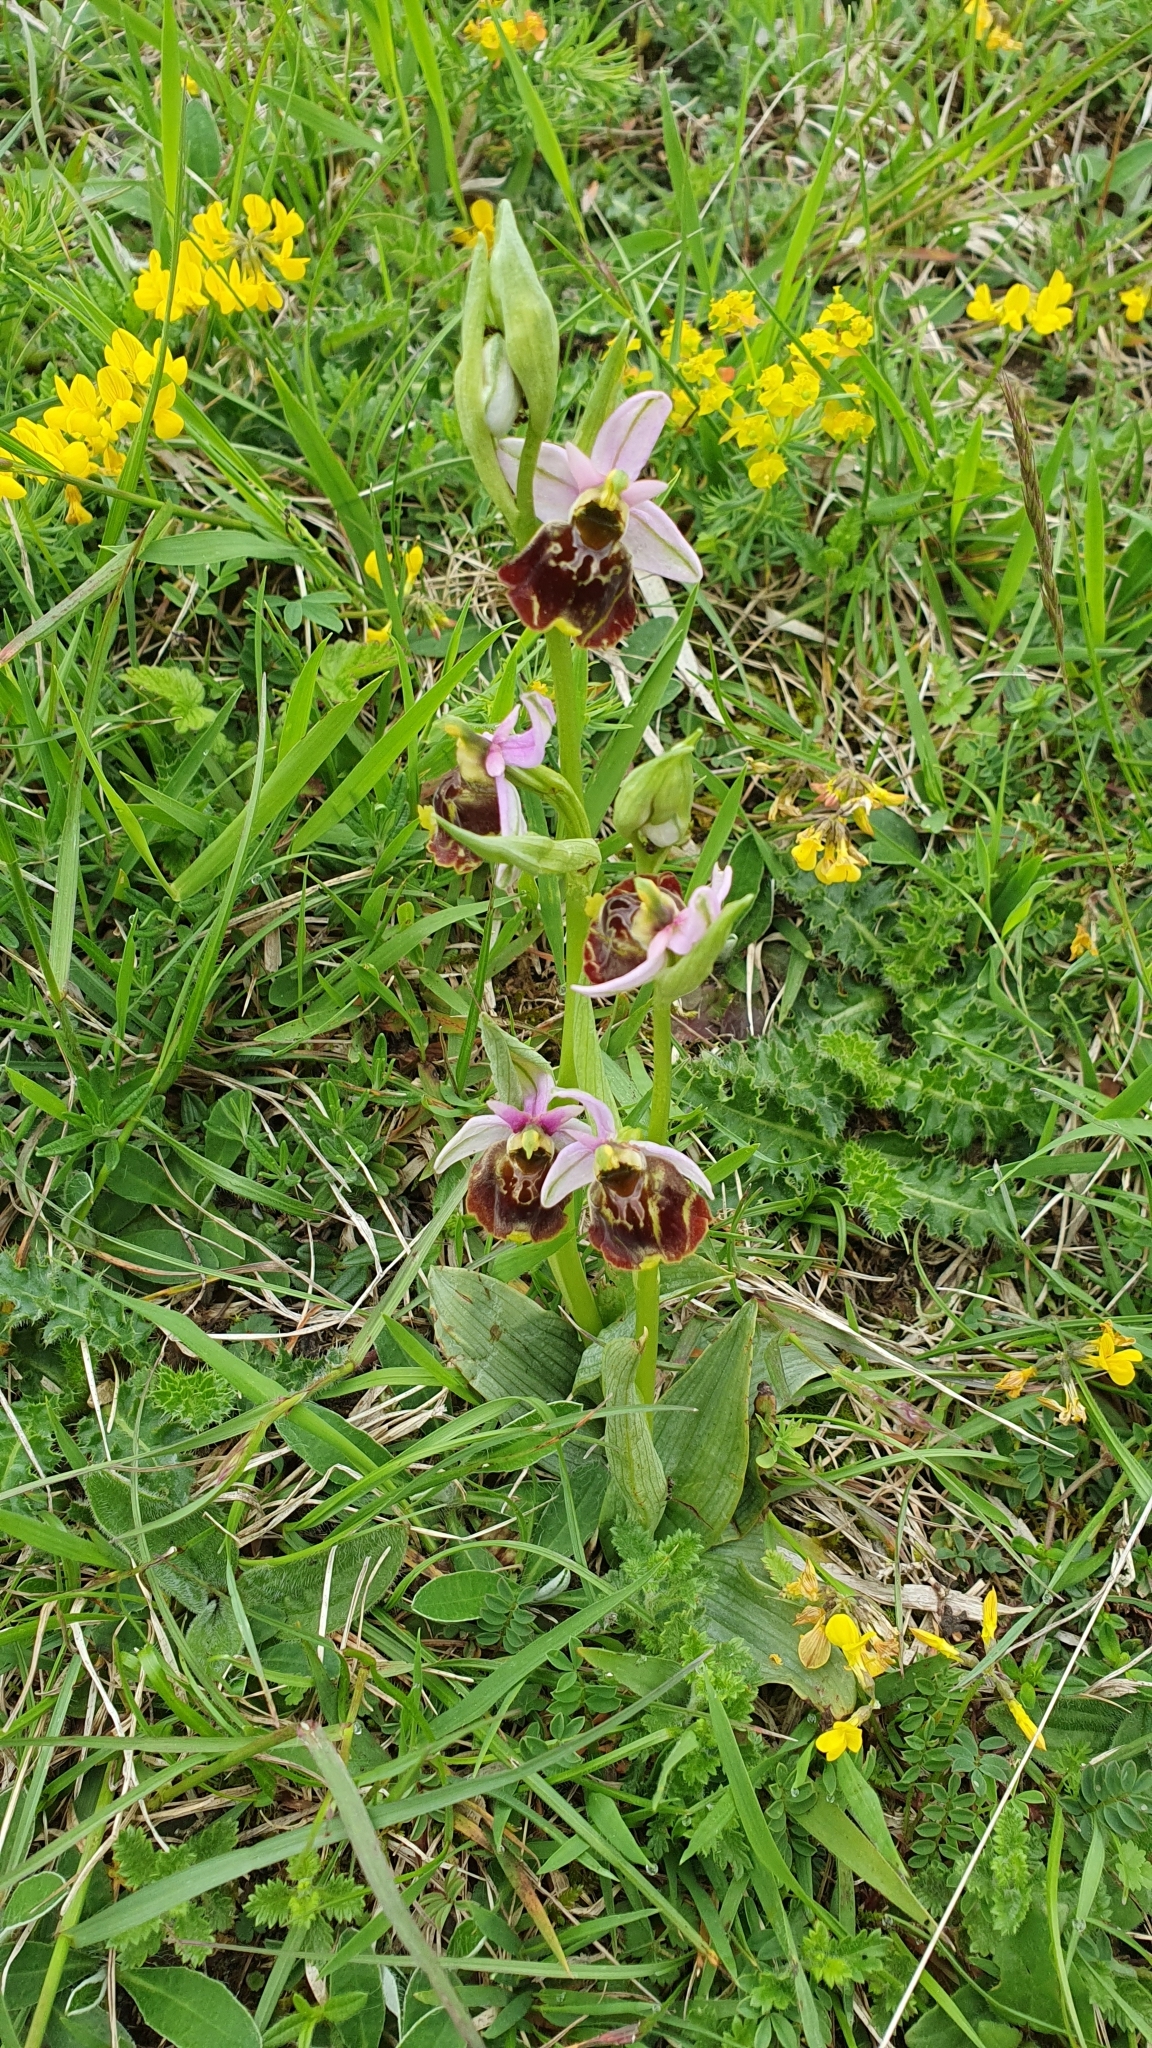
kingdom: Plantae
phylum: Tracheophyta
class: Liliopsida
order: Asparagales
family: Orchidaceae
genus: Ophrys
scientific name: Ophrys holosericea
